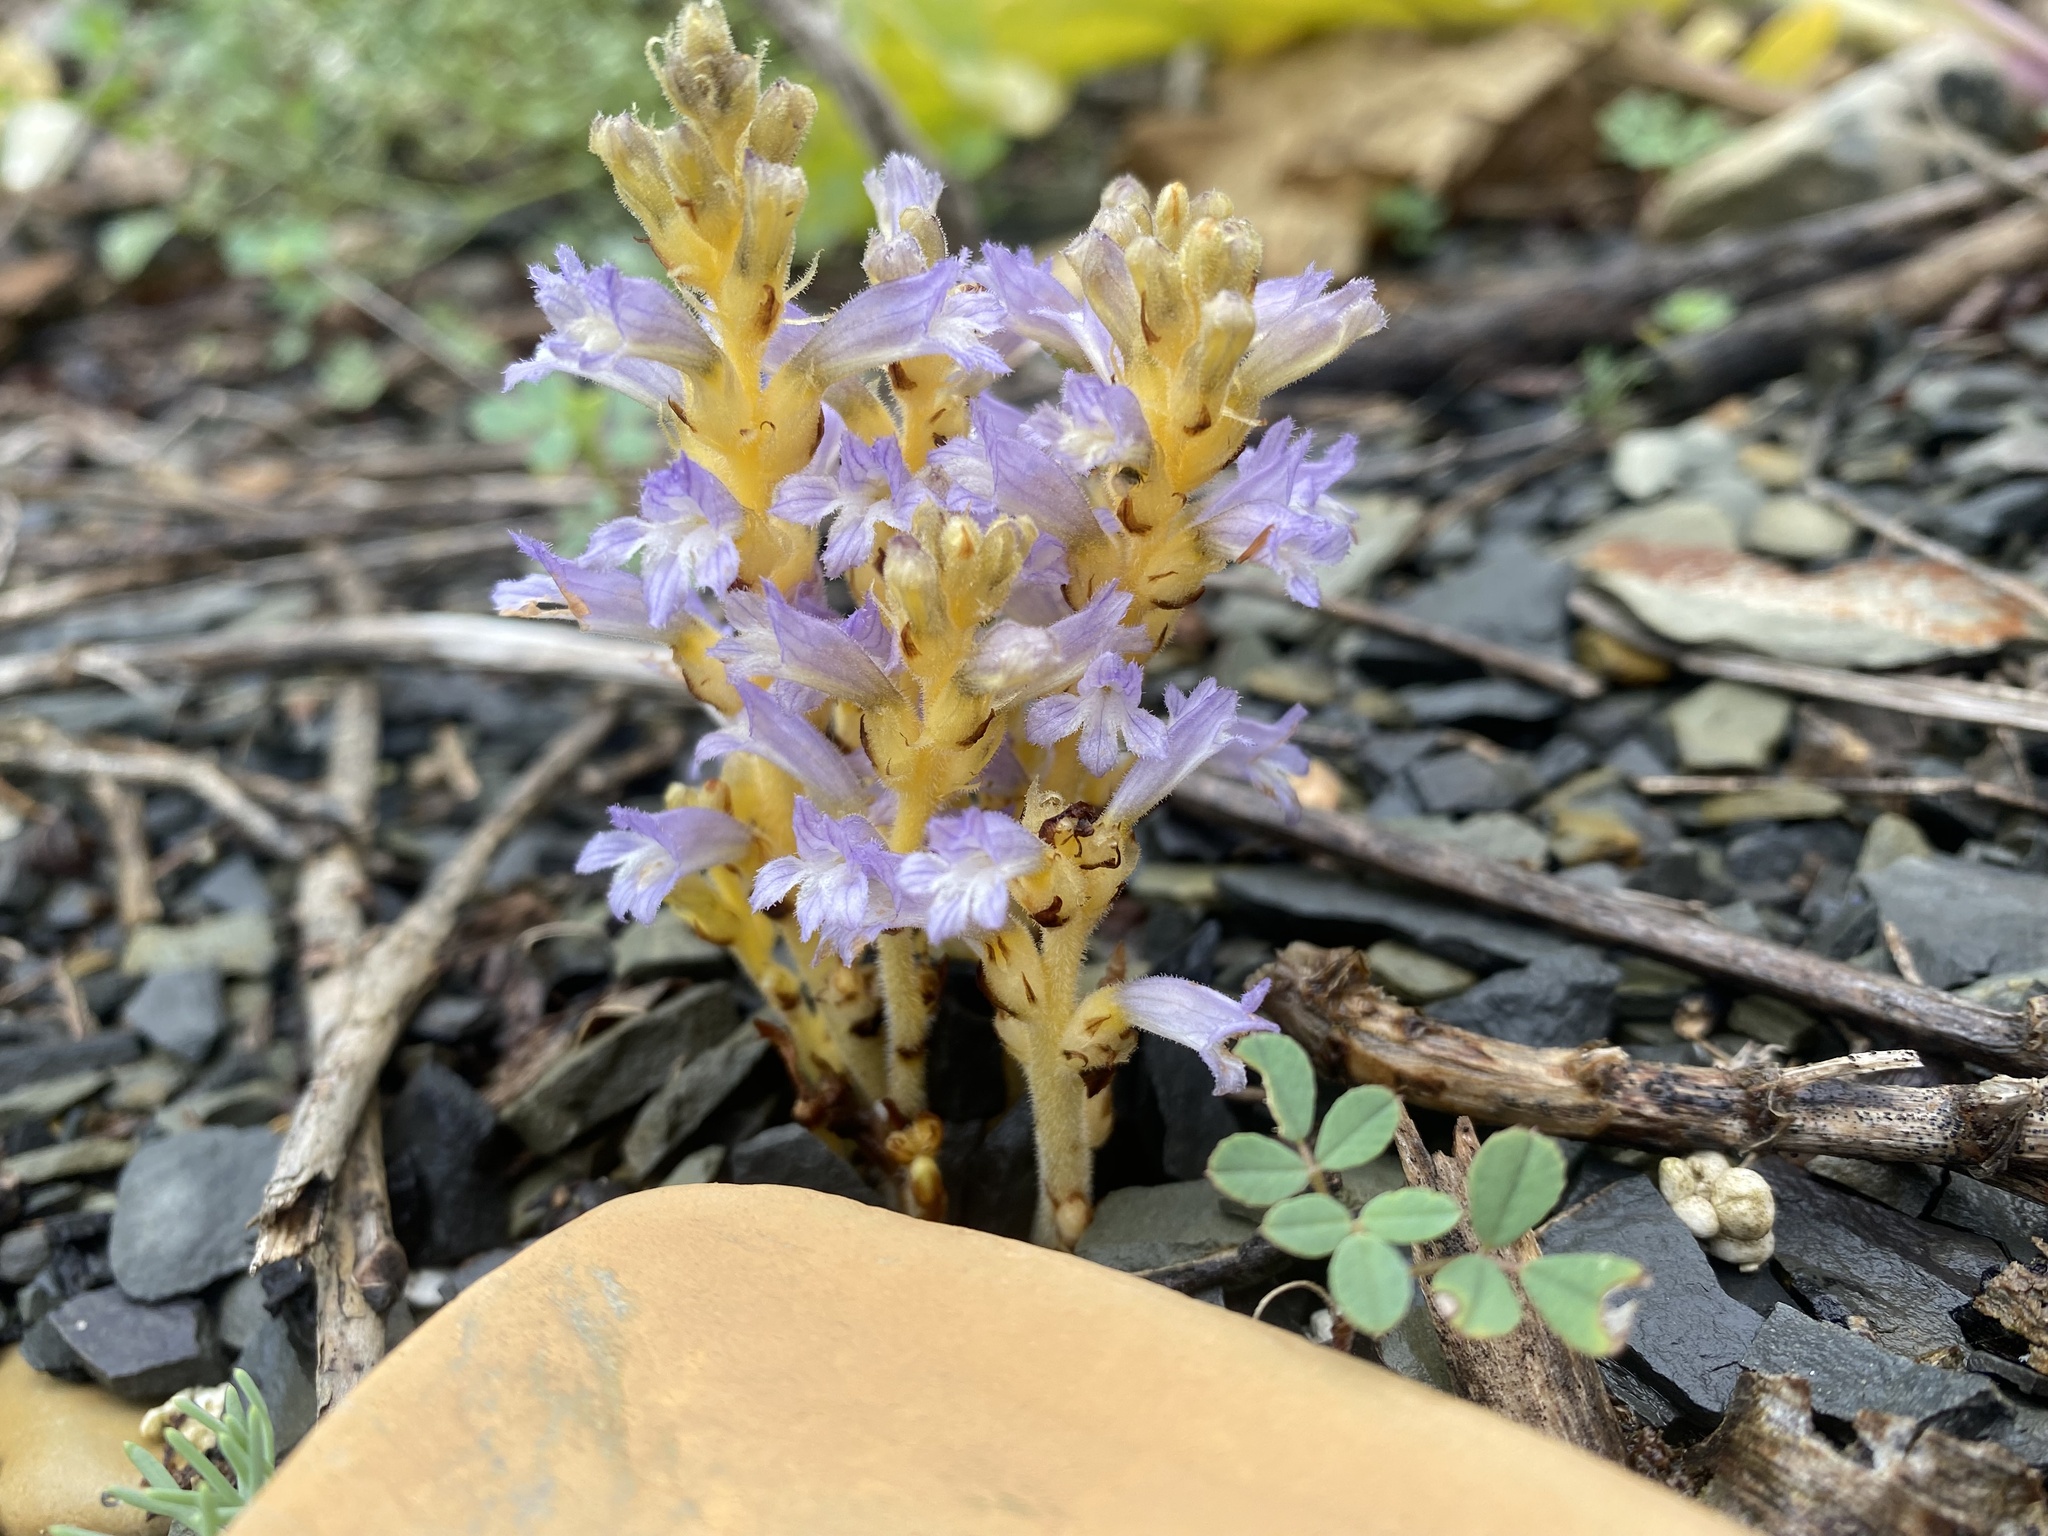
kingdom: Plantae
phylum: Tracheophyta
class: Magnoliopsida
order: Lamiales
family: Orobanchaceae
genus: Phelipanche
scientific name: Phelipanche mutelii
